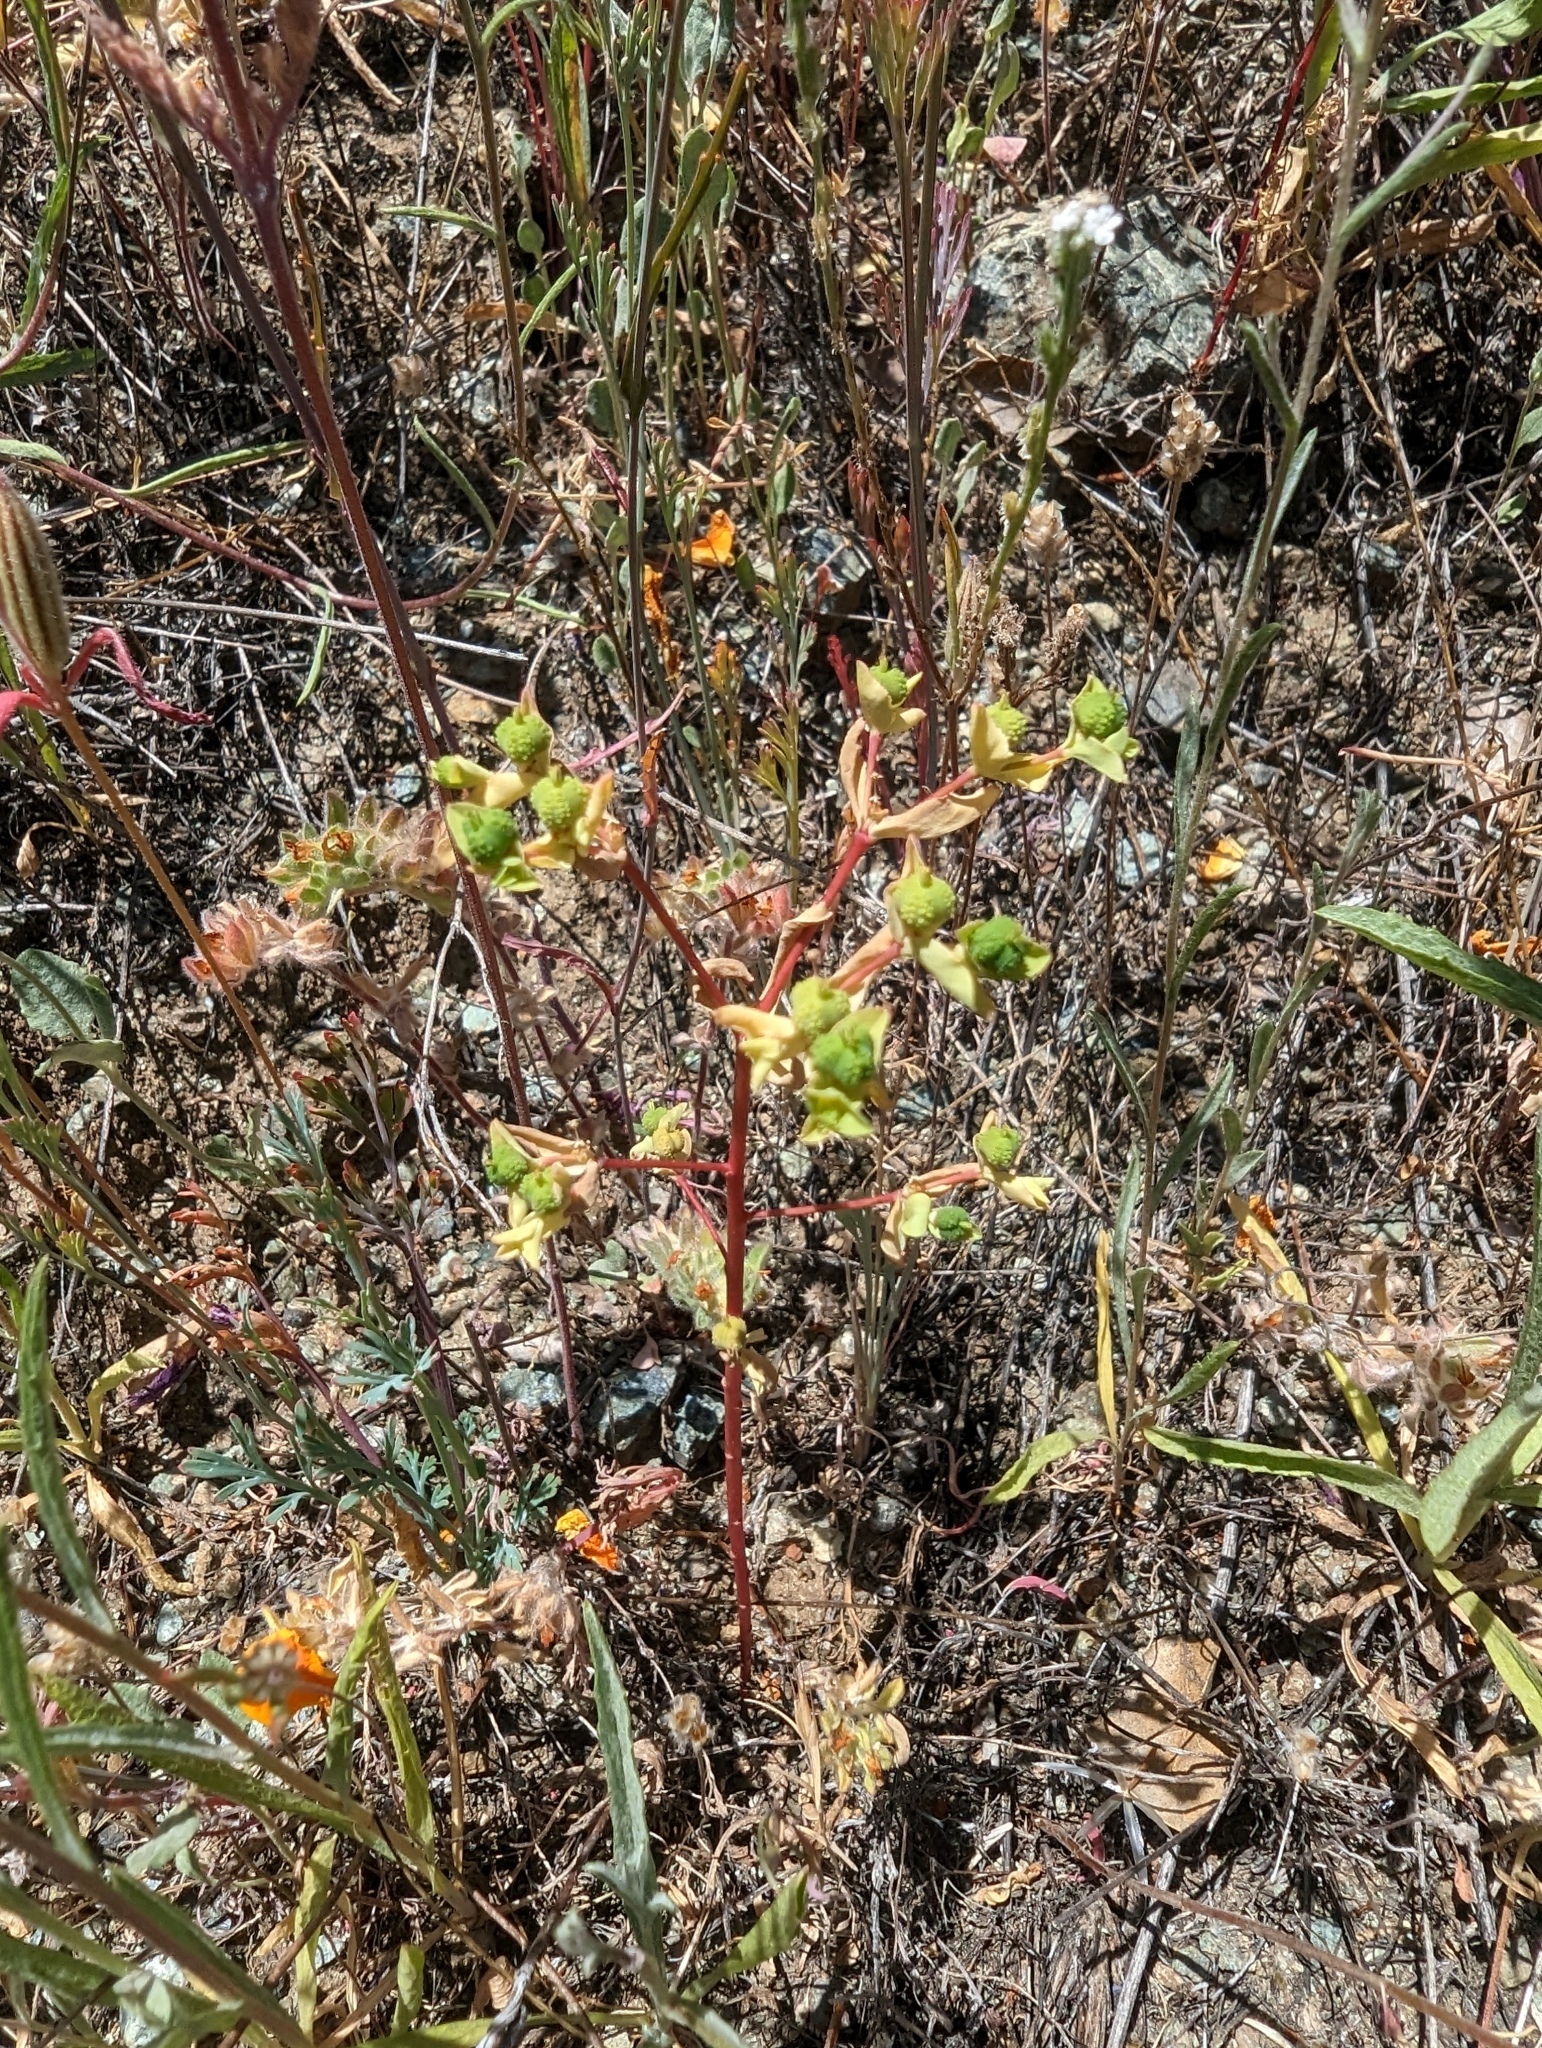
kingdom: Plantae
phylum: Tracheophyta
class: Magnoliopsida
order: Malpighiales
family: Euphorbiaceae
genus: Euphorbia
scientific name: Euphorbia spathulata
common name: Blunt spurge
